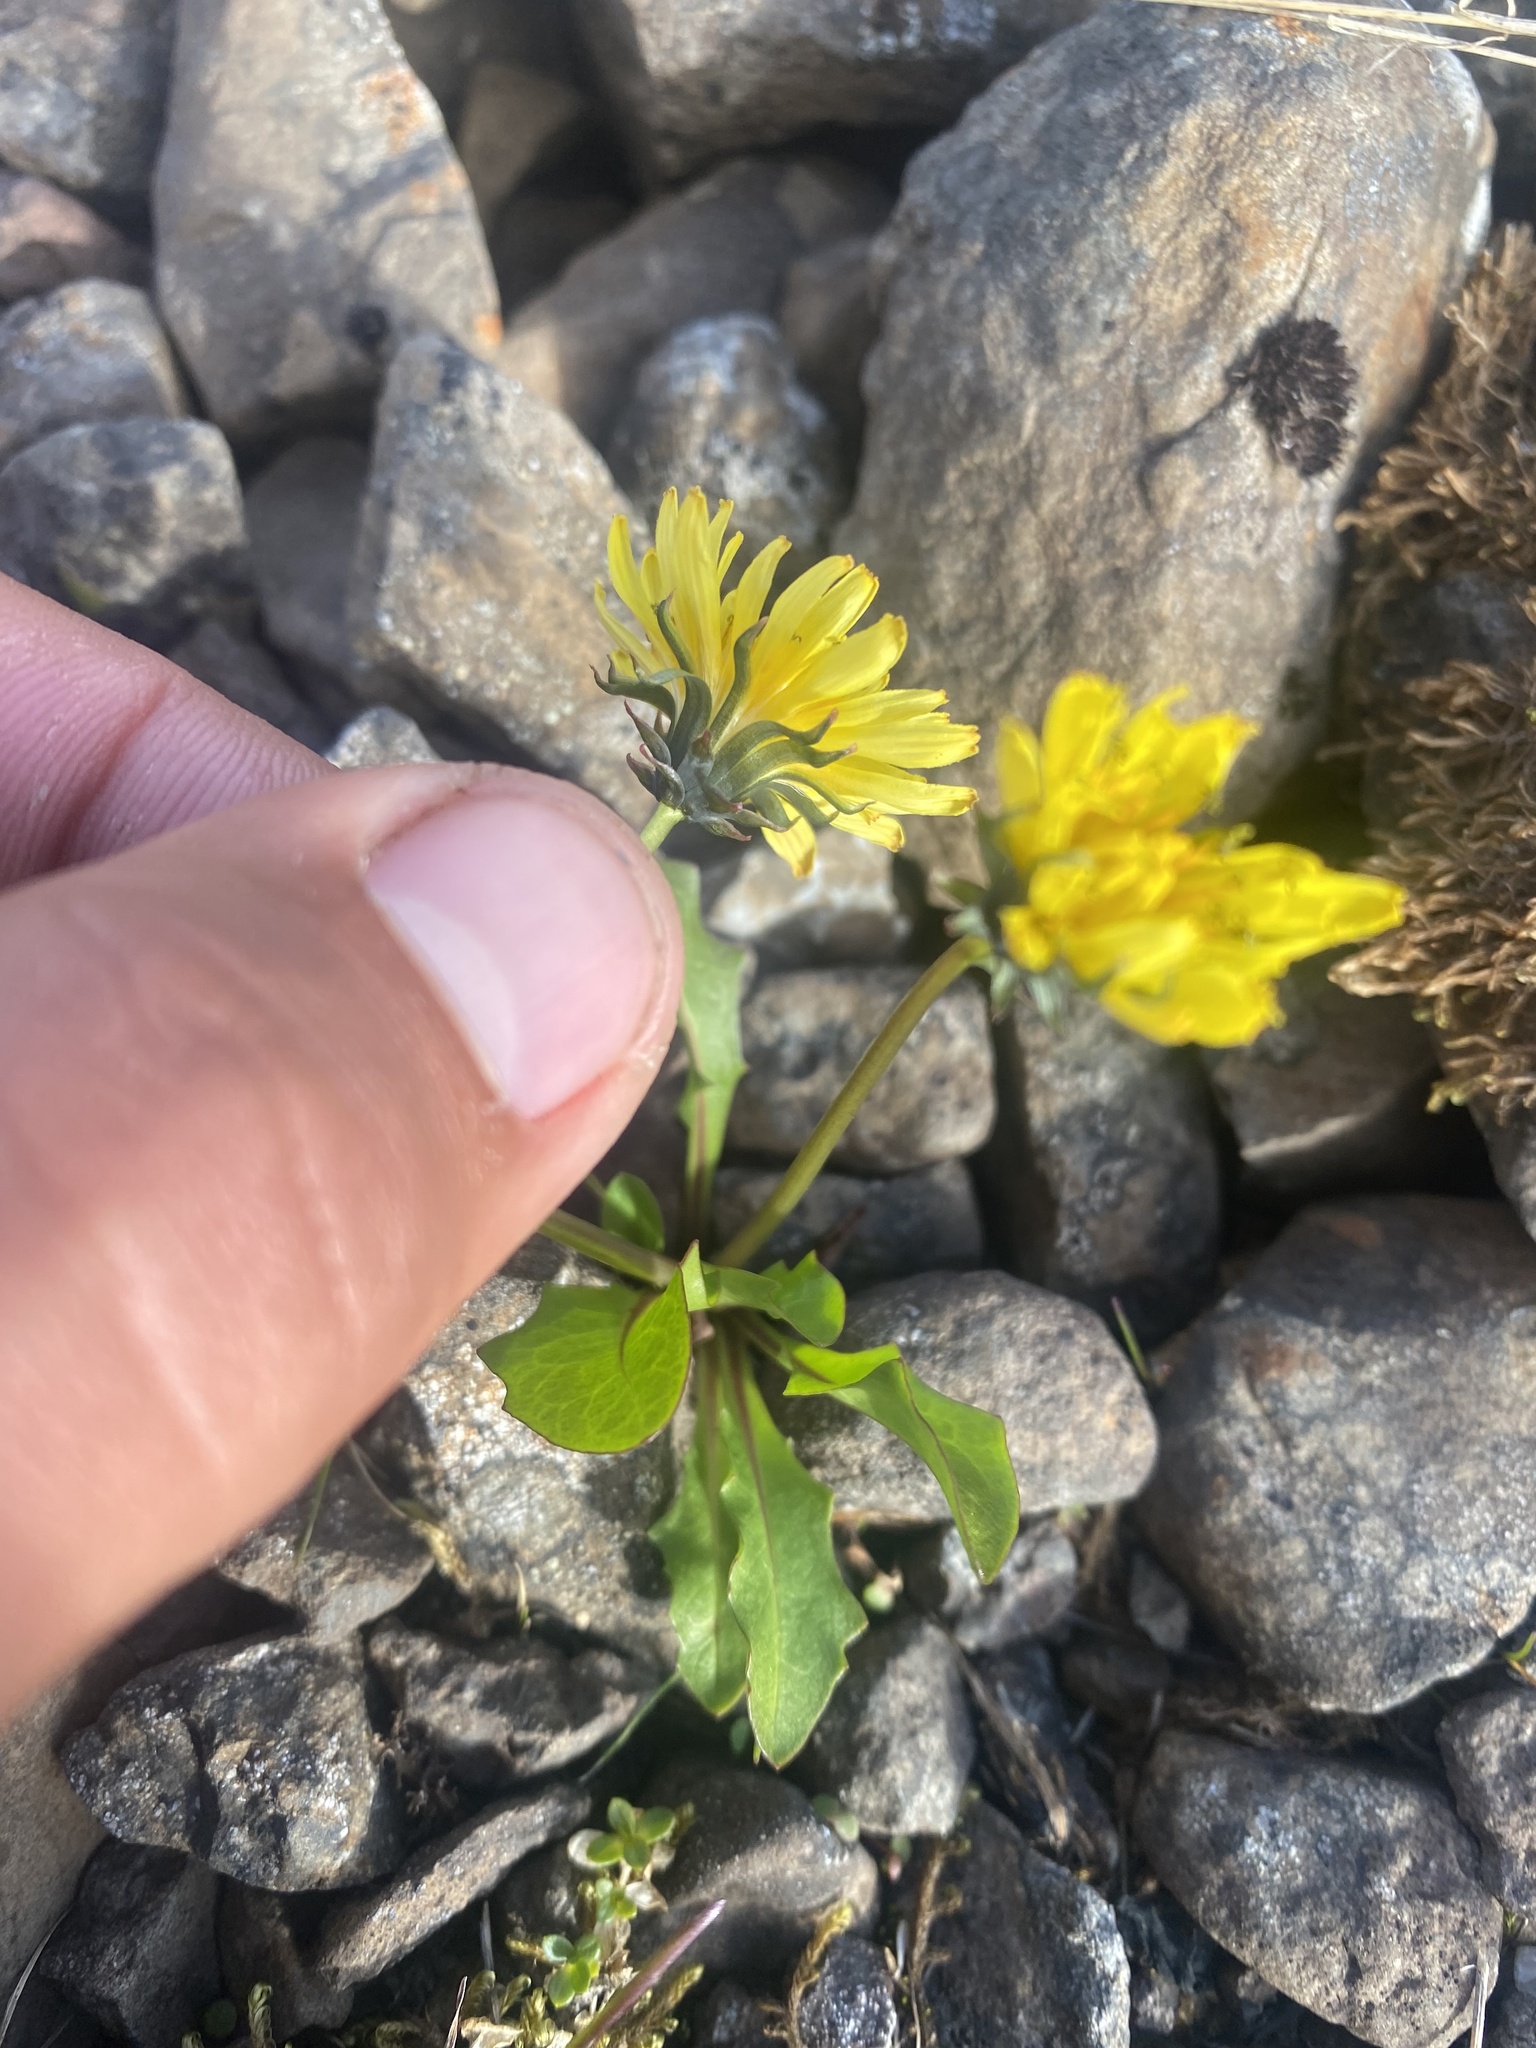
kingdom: Plantae
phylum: Tracheophyta
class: Magnoliopsida
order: Asterales
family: Asteraceae
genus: Taraxacum
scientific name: Taraxacum glabrum
